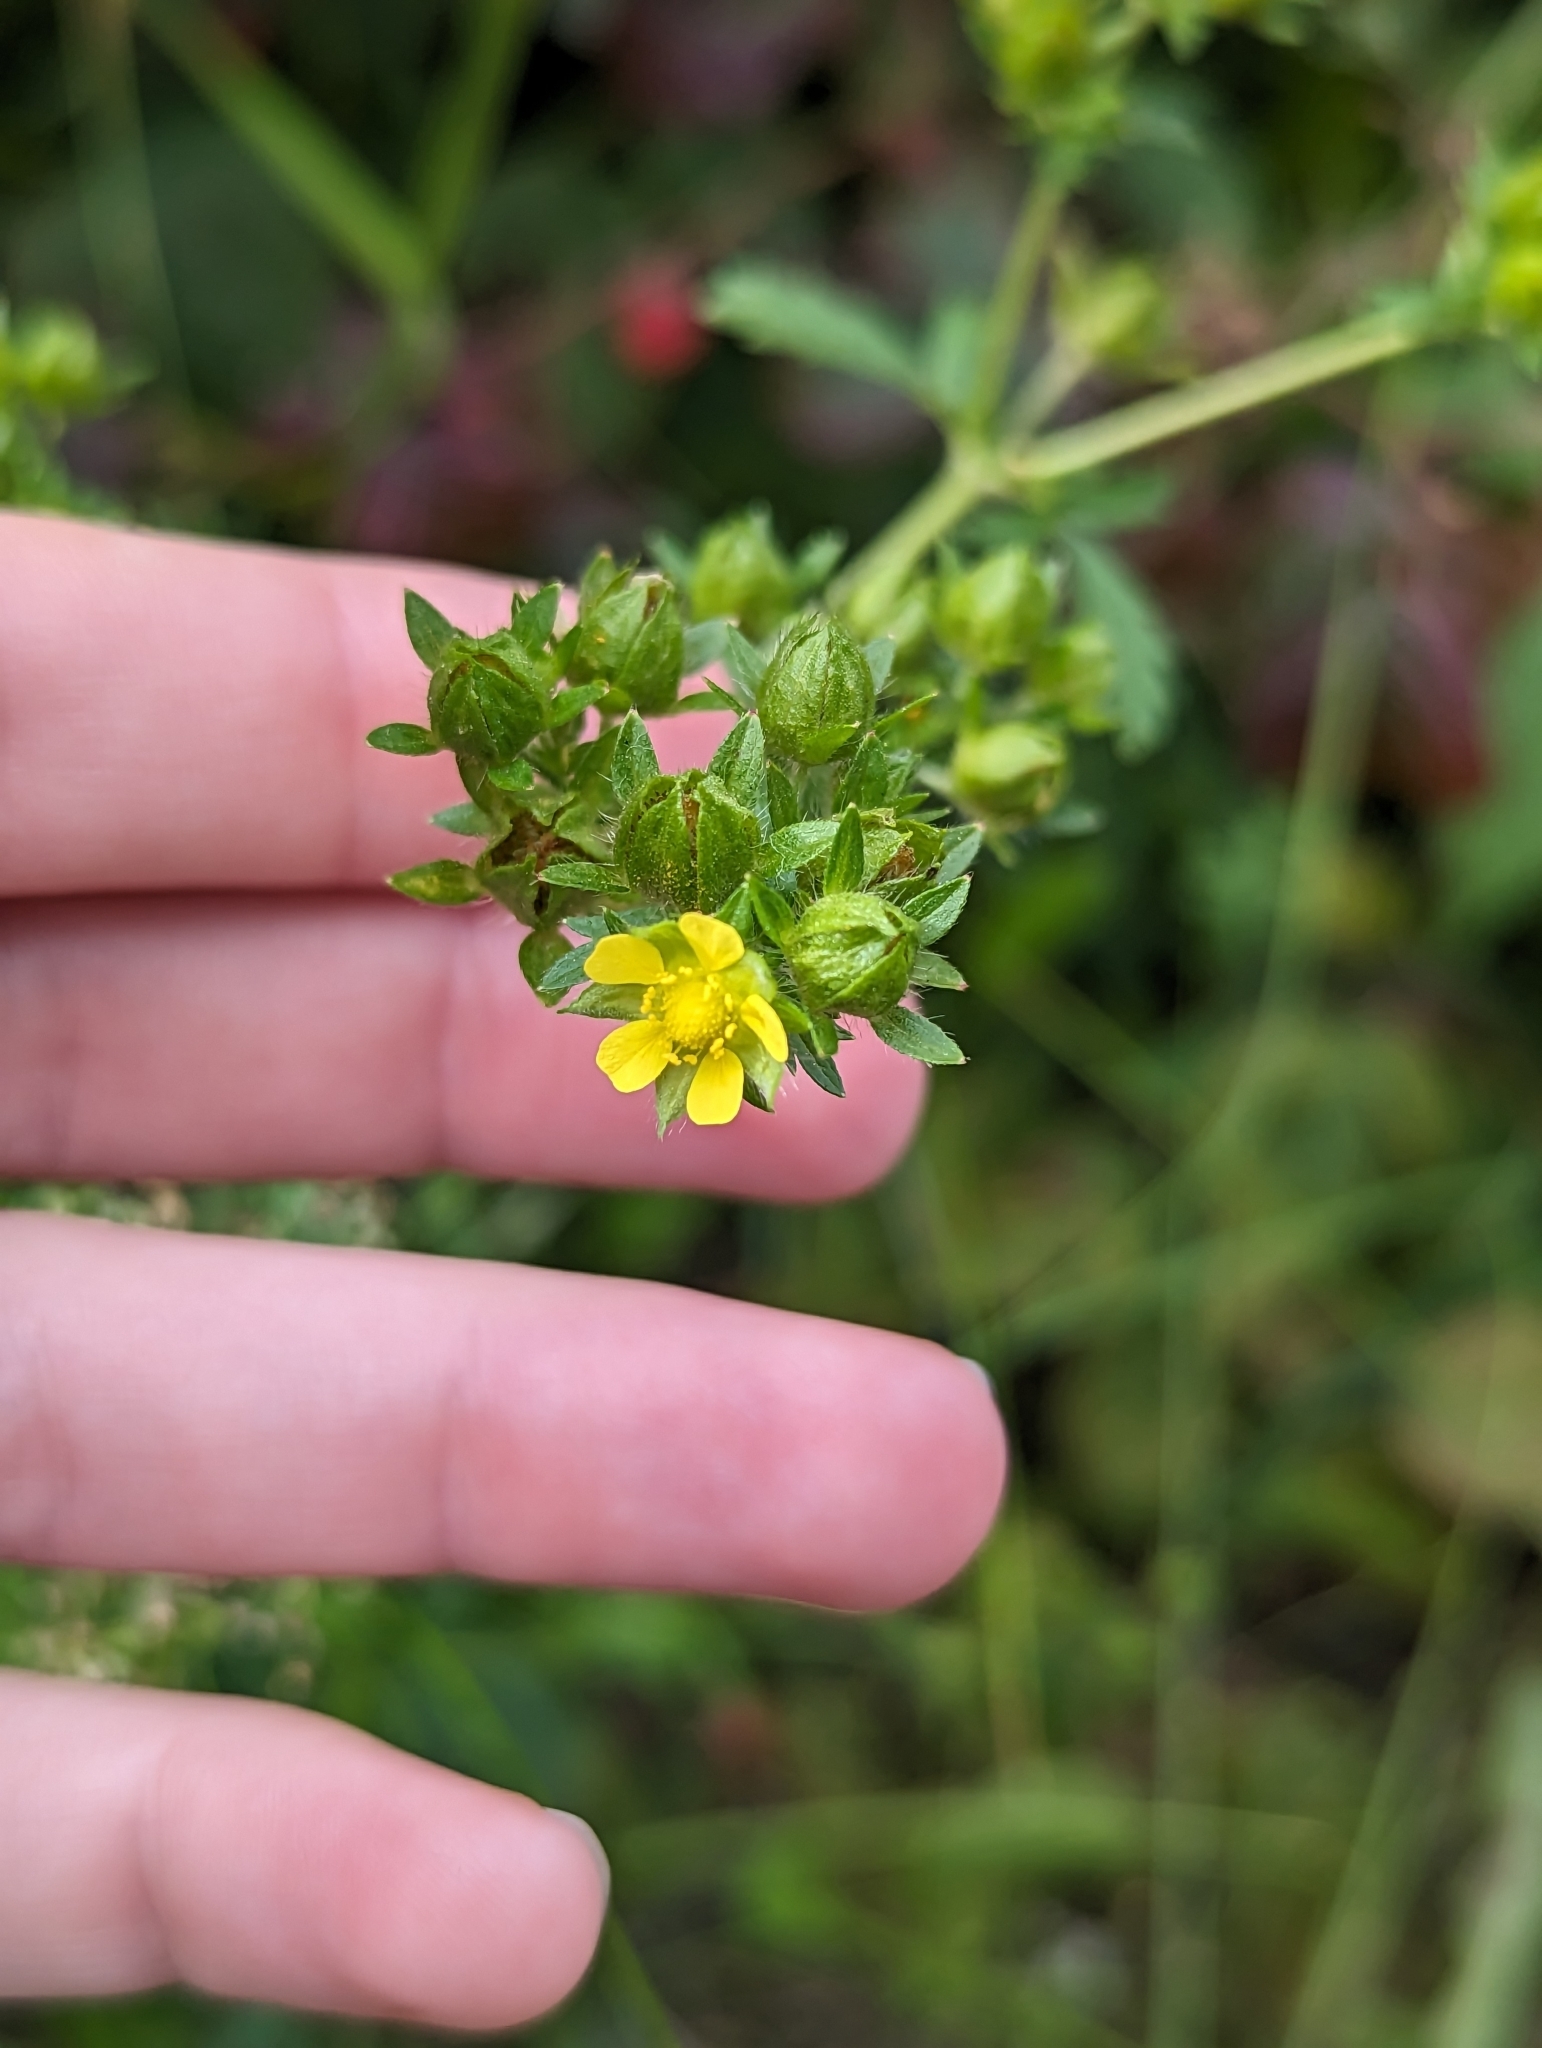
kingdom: Plantae
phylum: Tracheophyta
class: Magnoliopsida
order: Rosales
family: Rosaceae
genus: Potentilla
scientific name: Potentilla norvegica
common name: Ternate-leaved cinquefoil
